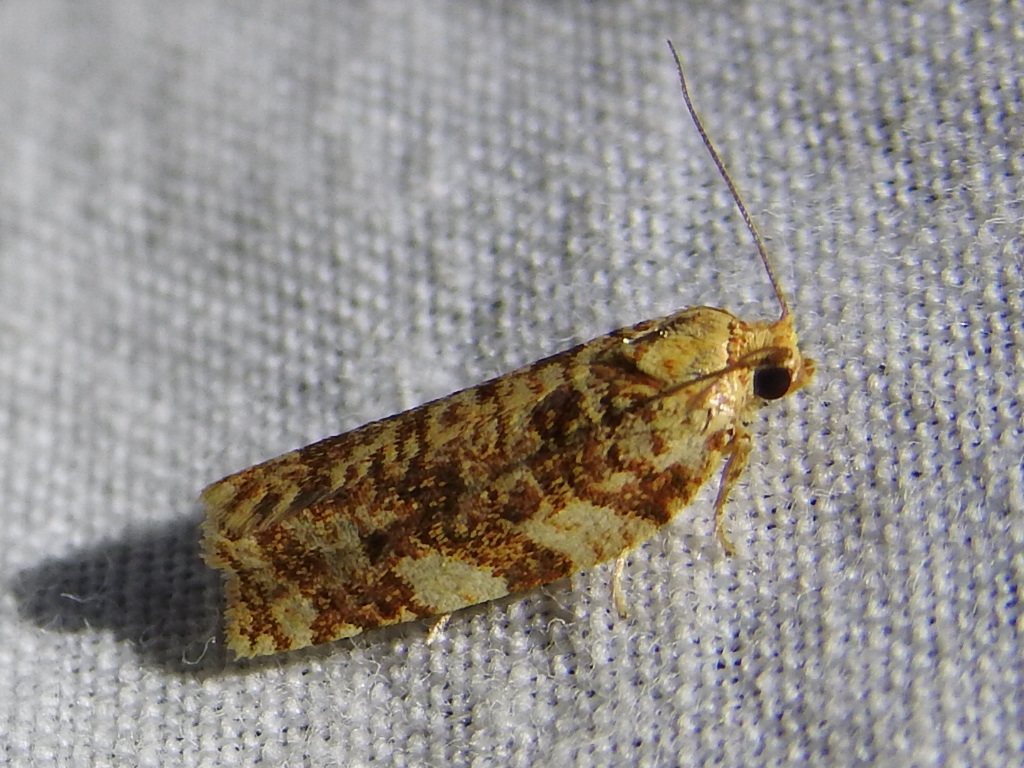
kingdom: Animalia
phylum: Arthropoda
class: Insecta
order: Lepidoptera
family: Tortricidae
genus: Archips
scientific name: Archips argyrospila
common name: Fruit-tree leafroller moth
